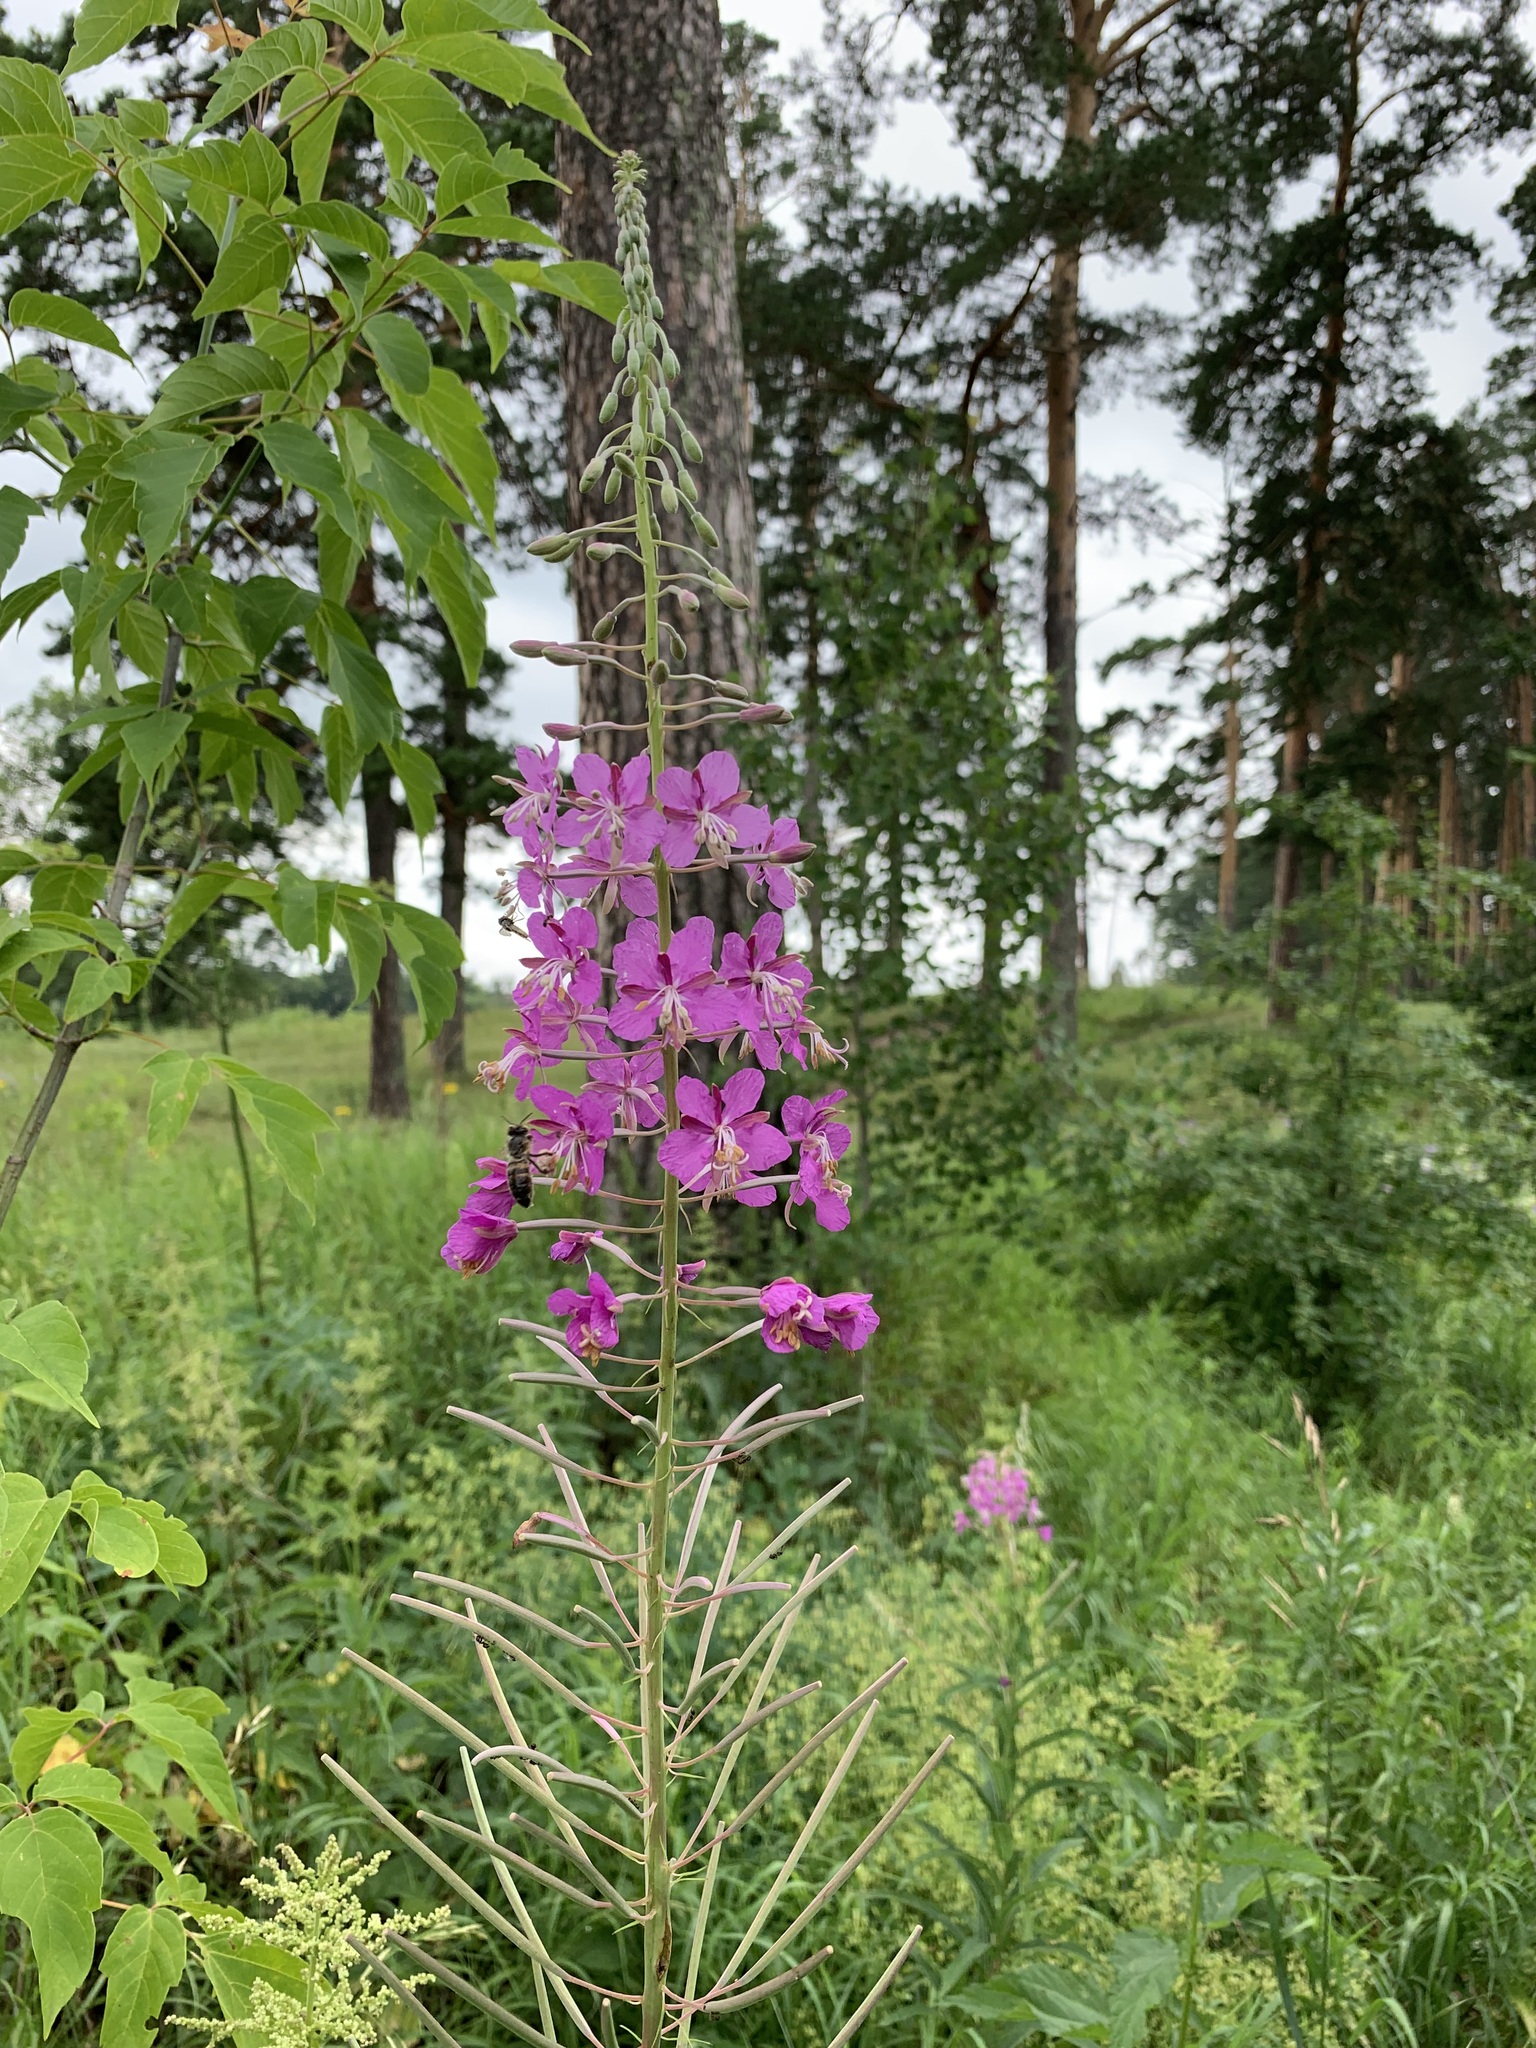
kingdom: Plantae
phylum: Tracheophyta
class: Magnoliopsida
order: Myrtales
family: Onagraceae
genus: Chamaenerion
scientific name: Chamaenerion angustifolium
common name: Fireweed
